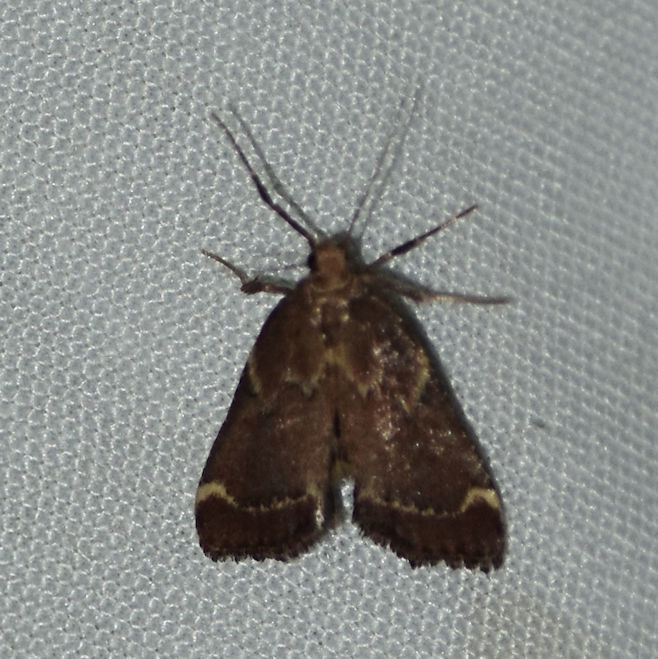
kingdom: Animalia
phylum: Arthropoda
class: Insecta
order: Lepidoptera
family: Pyralidae
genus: Hypsopygia
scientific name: Hypsopygia intermedialis
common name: Red-shawled moth
